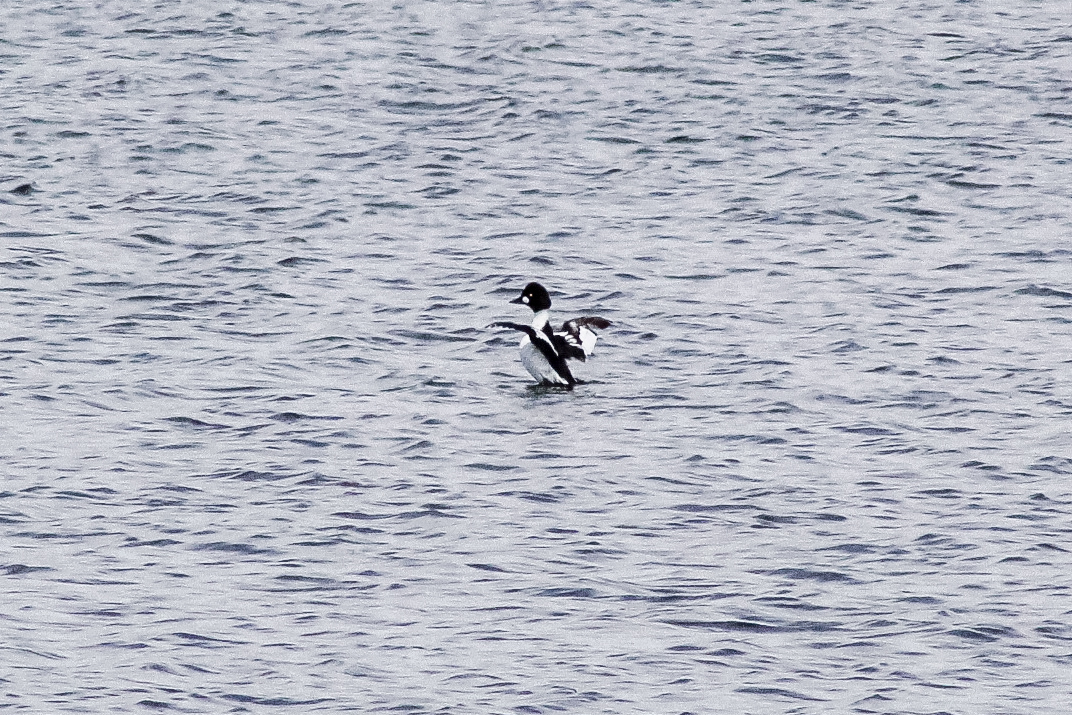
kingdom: Animalia
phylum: Chordata
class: Aves
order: Anseriformes
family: Anatidae
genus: Bucephala
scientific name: Bucephala clangula
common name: Common goldeneye
